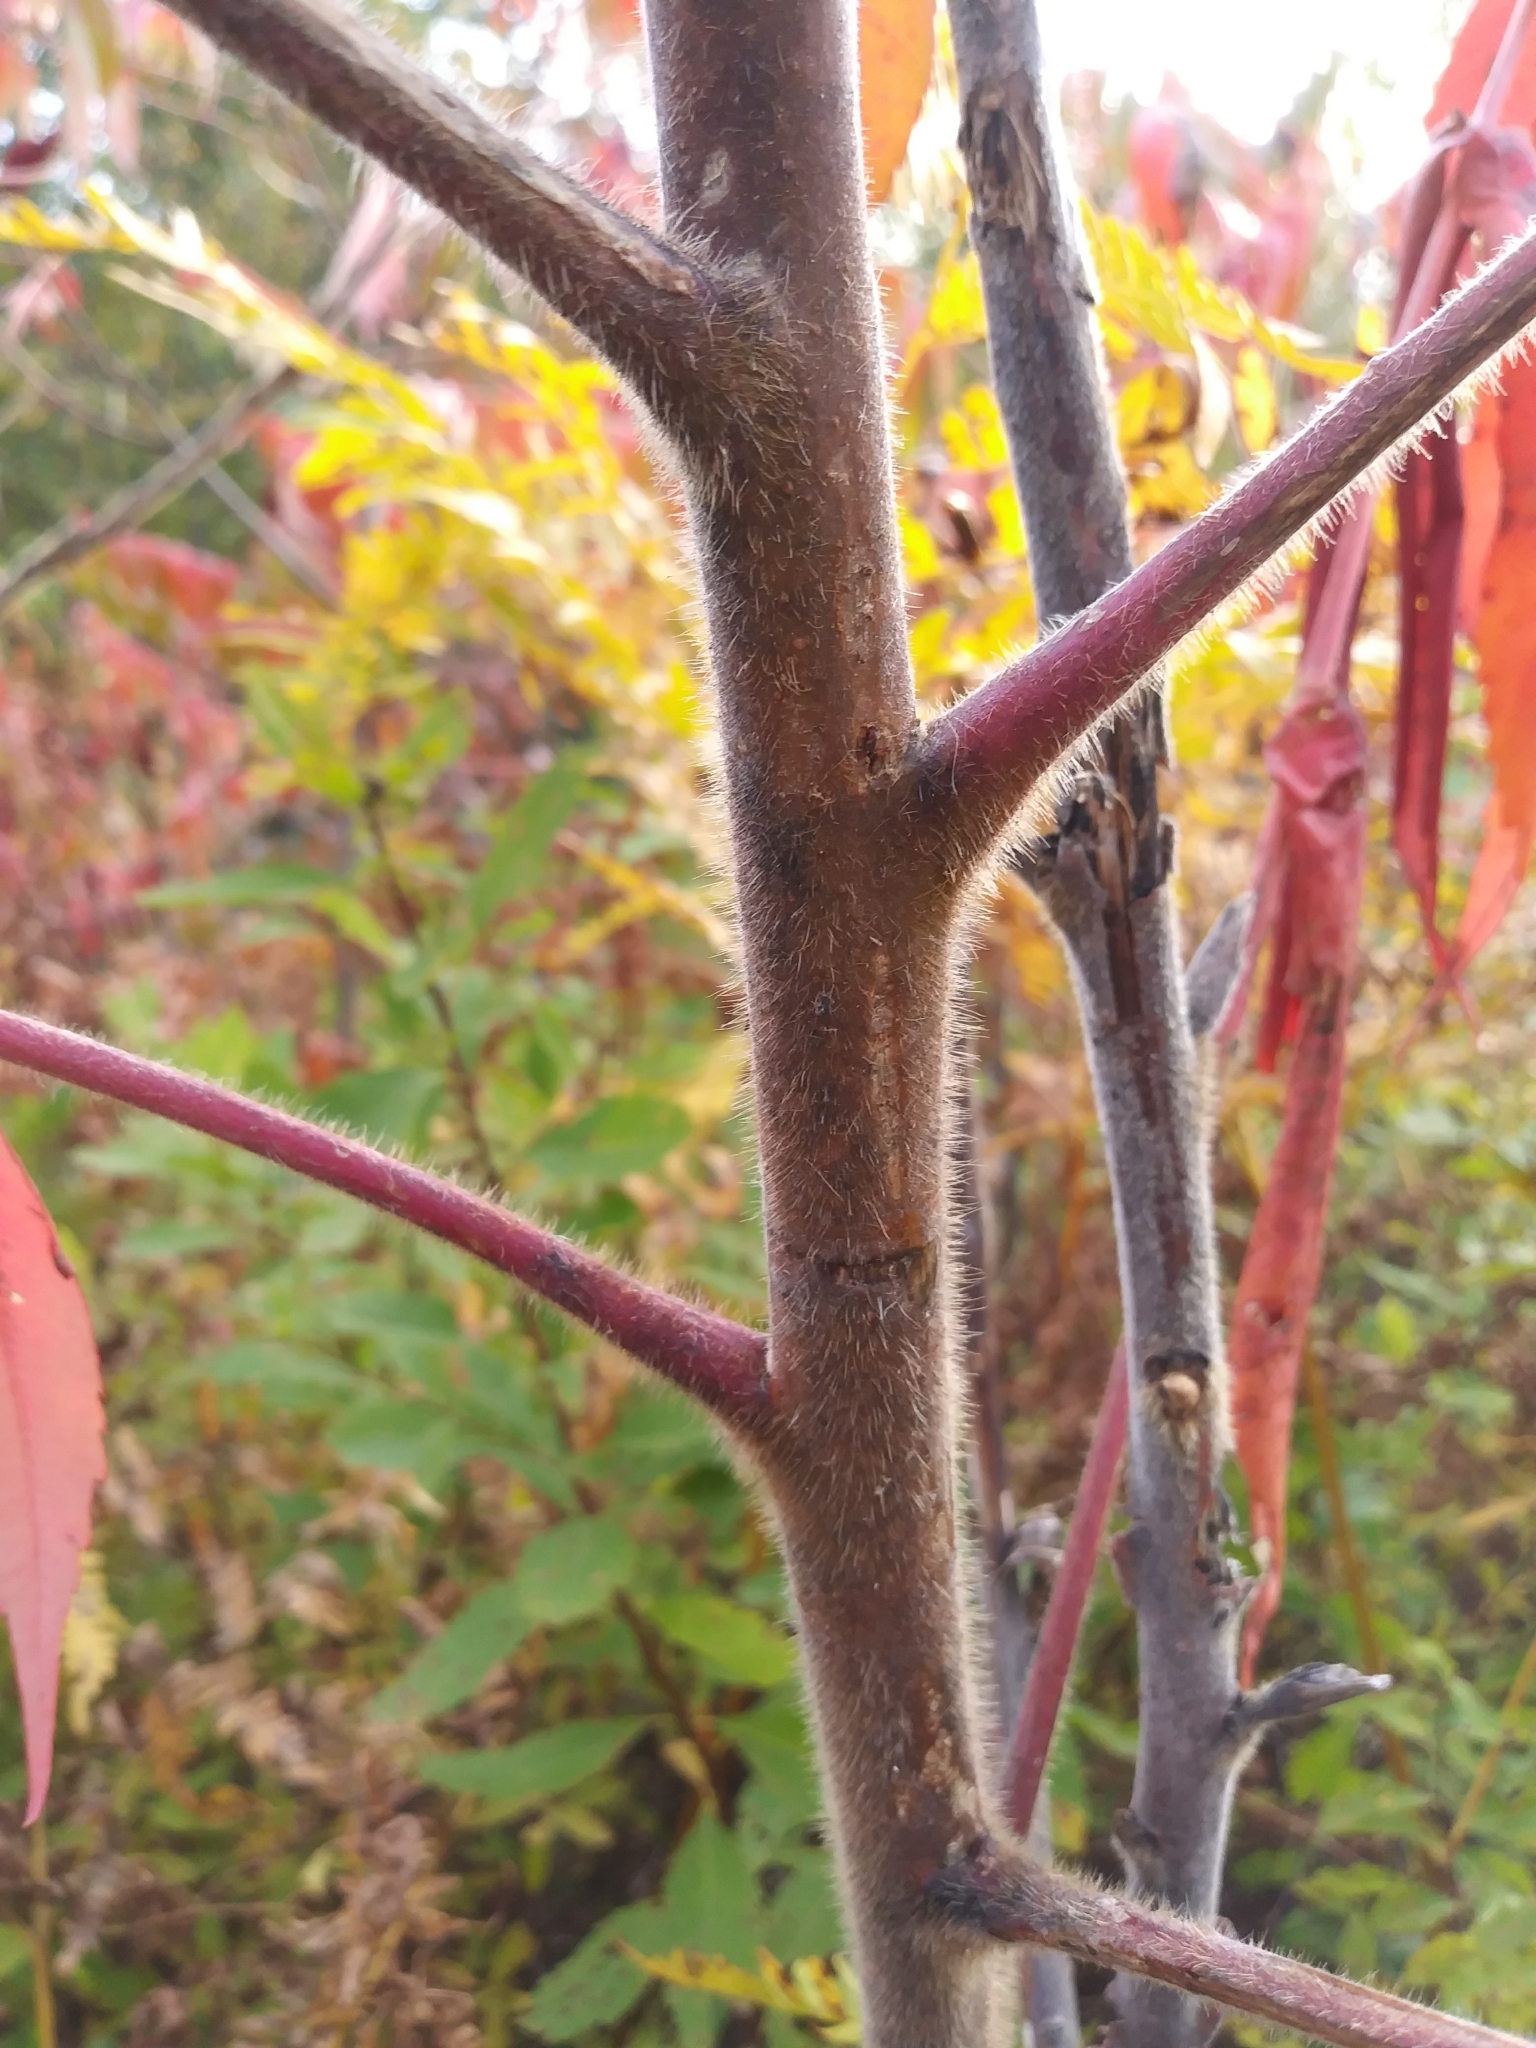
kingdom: Plantae
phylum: Tracheophyta
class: Magnoliopsida
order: Sapindales
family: Anacardiaceae
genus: Rhus
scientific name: Rhus typhina
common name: Staghorn sumac
